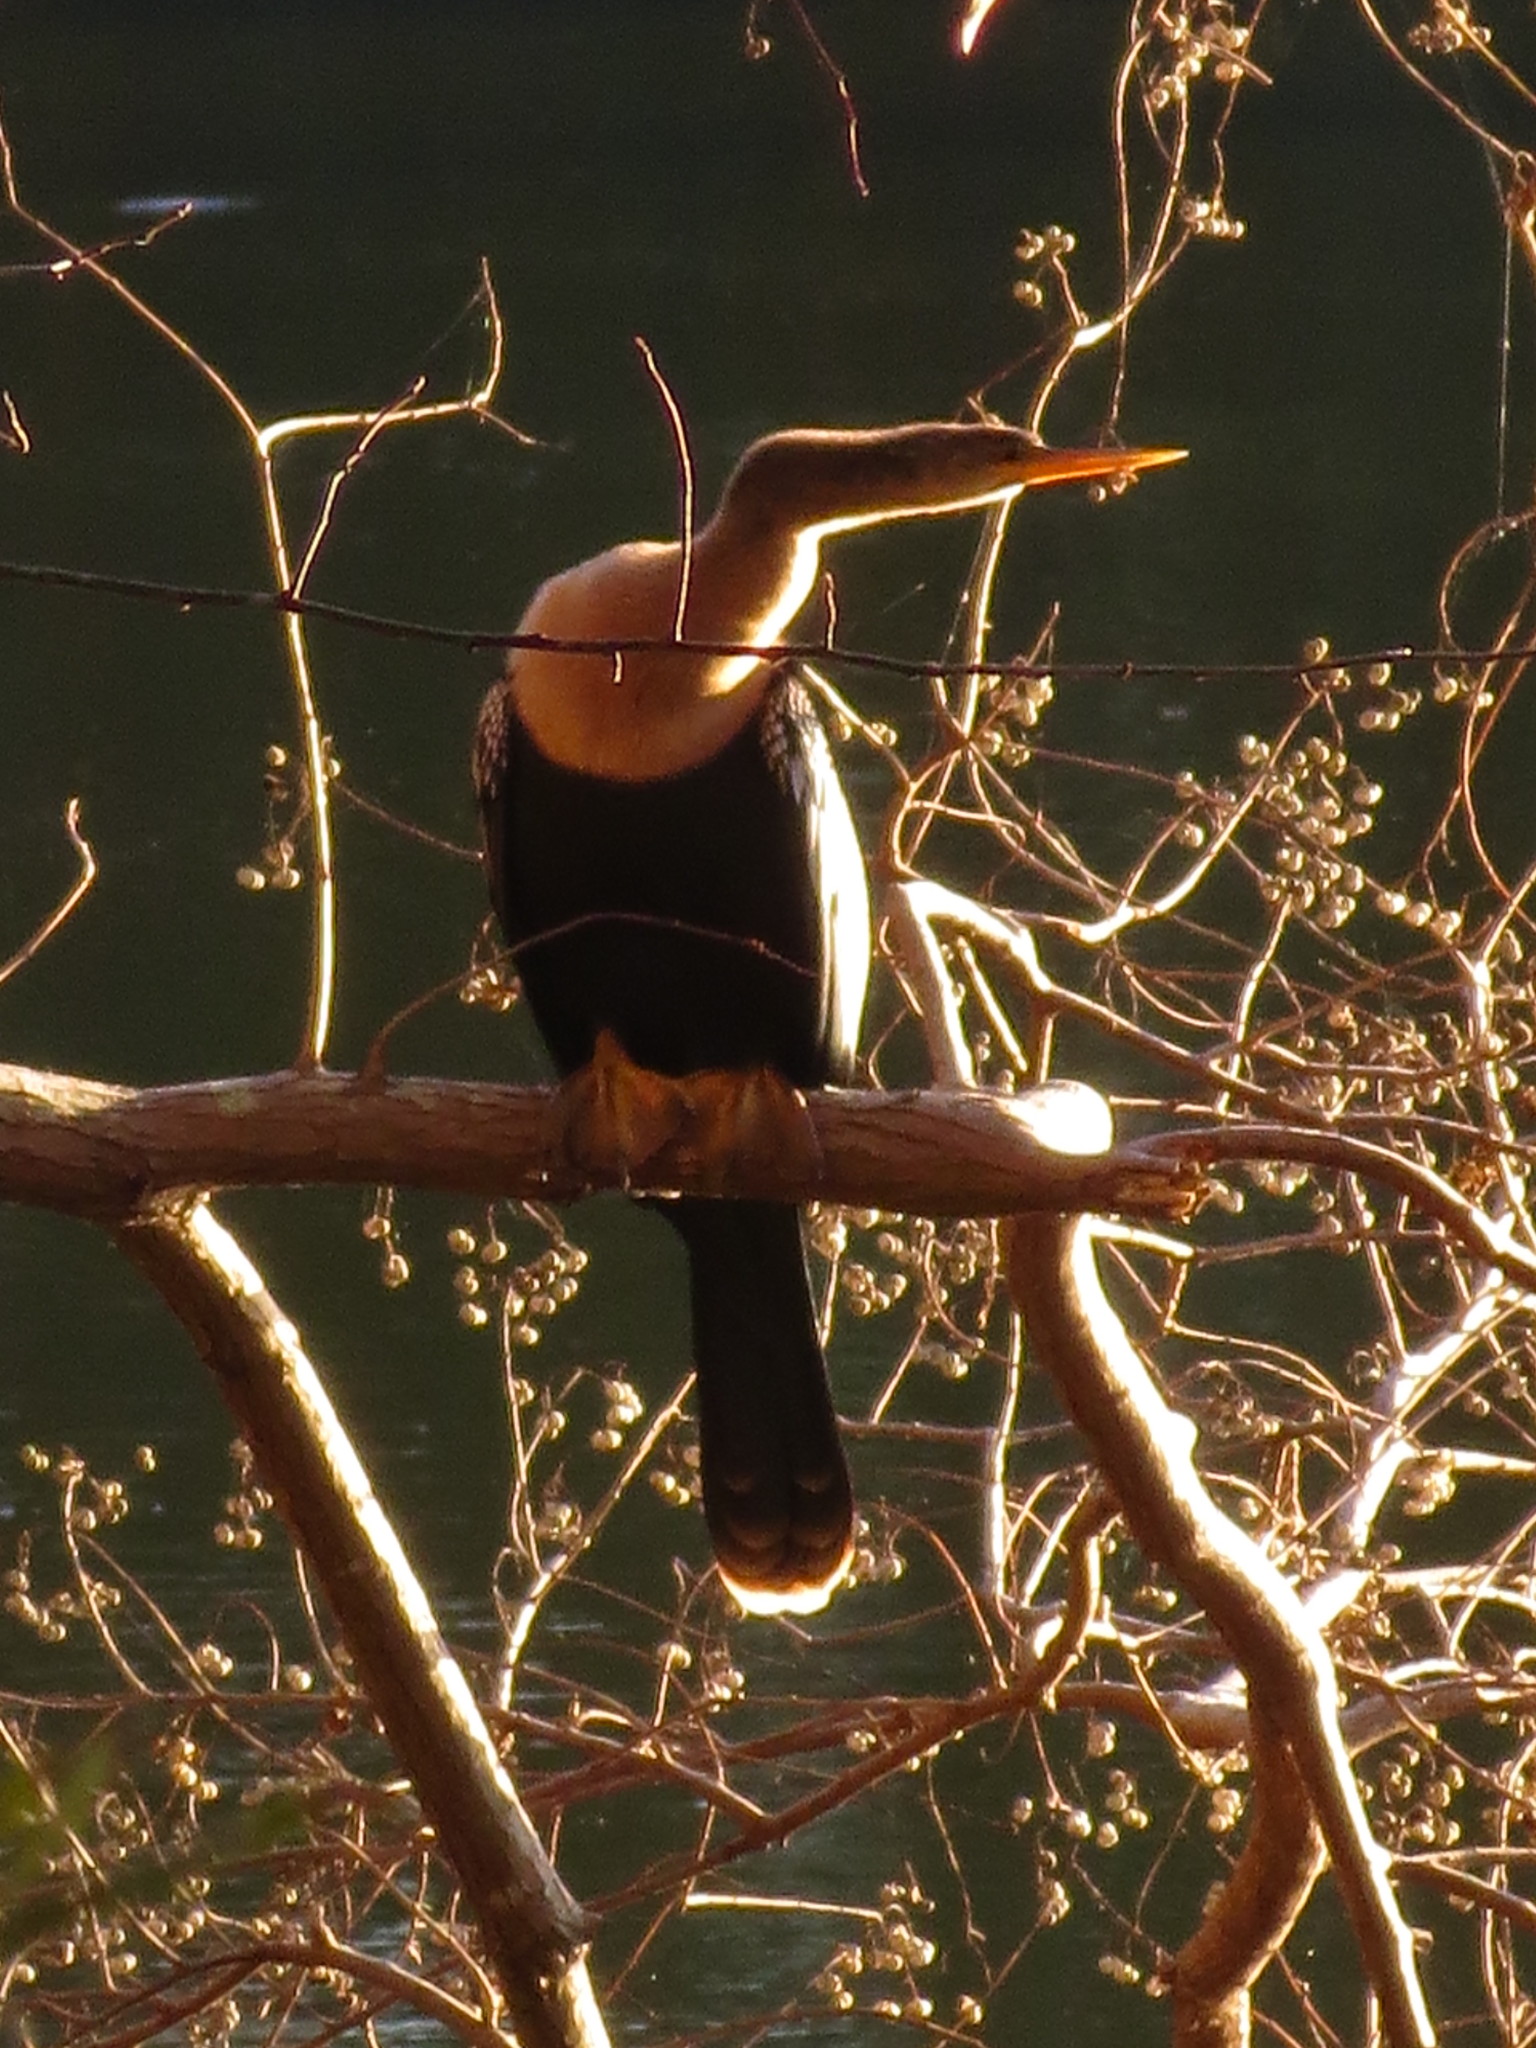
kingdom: Animalia
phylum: Chordata
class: Aves
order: Suliformes
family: Anhingidae
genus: Anhinga
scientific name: Anhinga anhinga
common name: Anhinga
